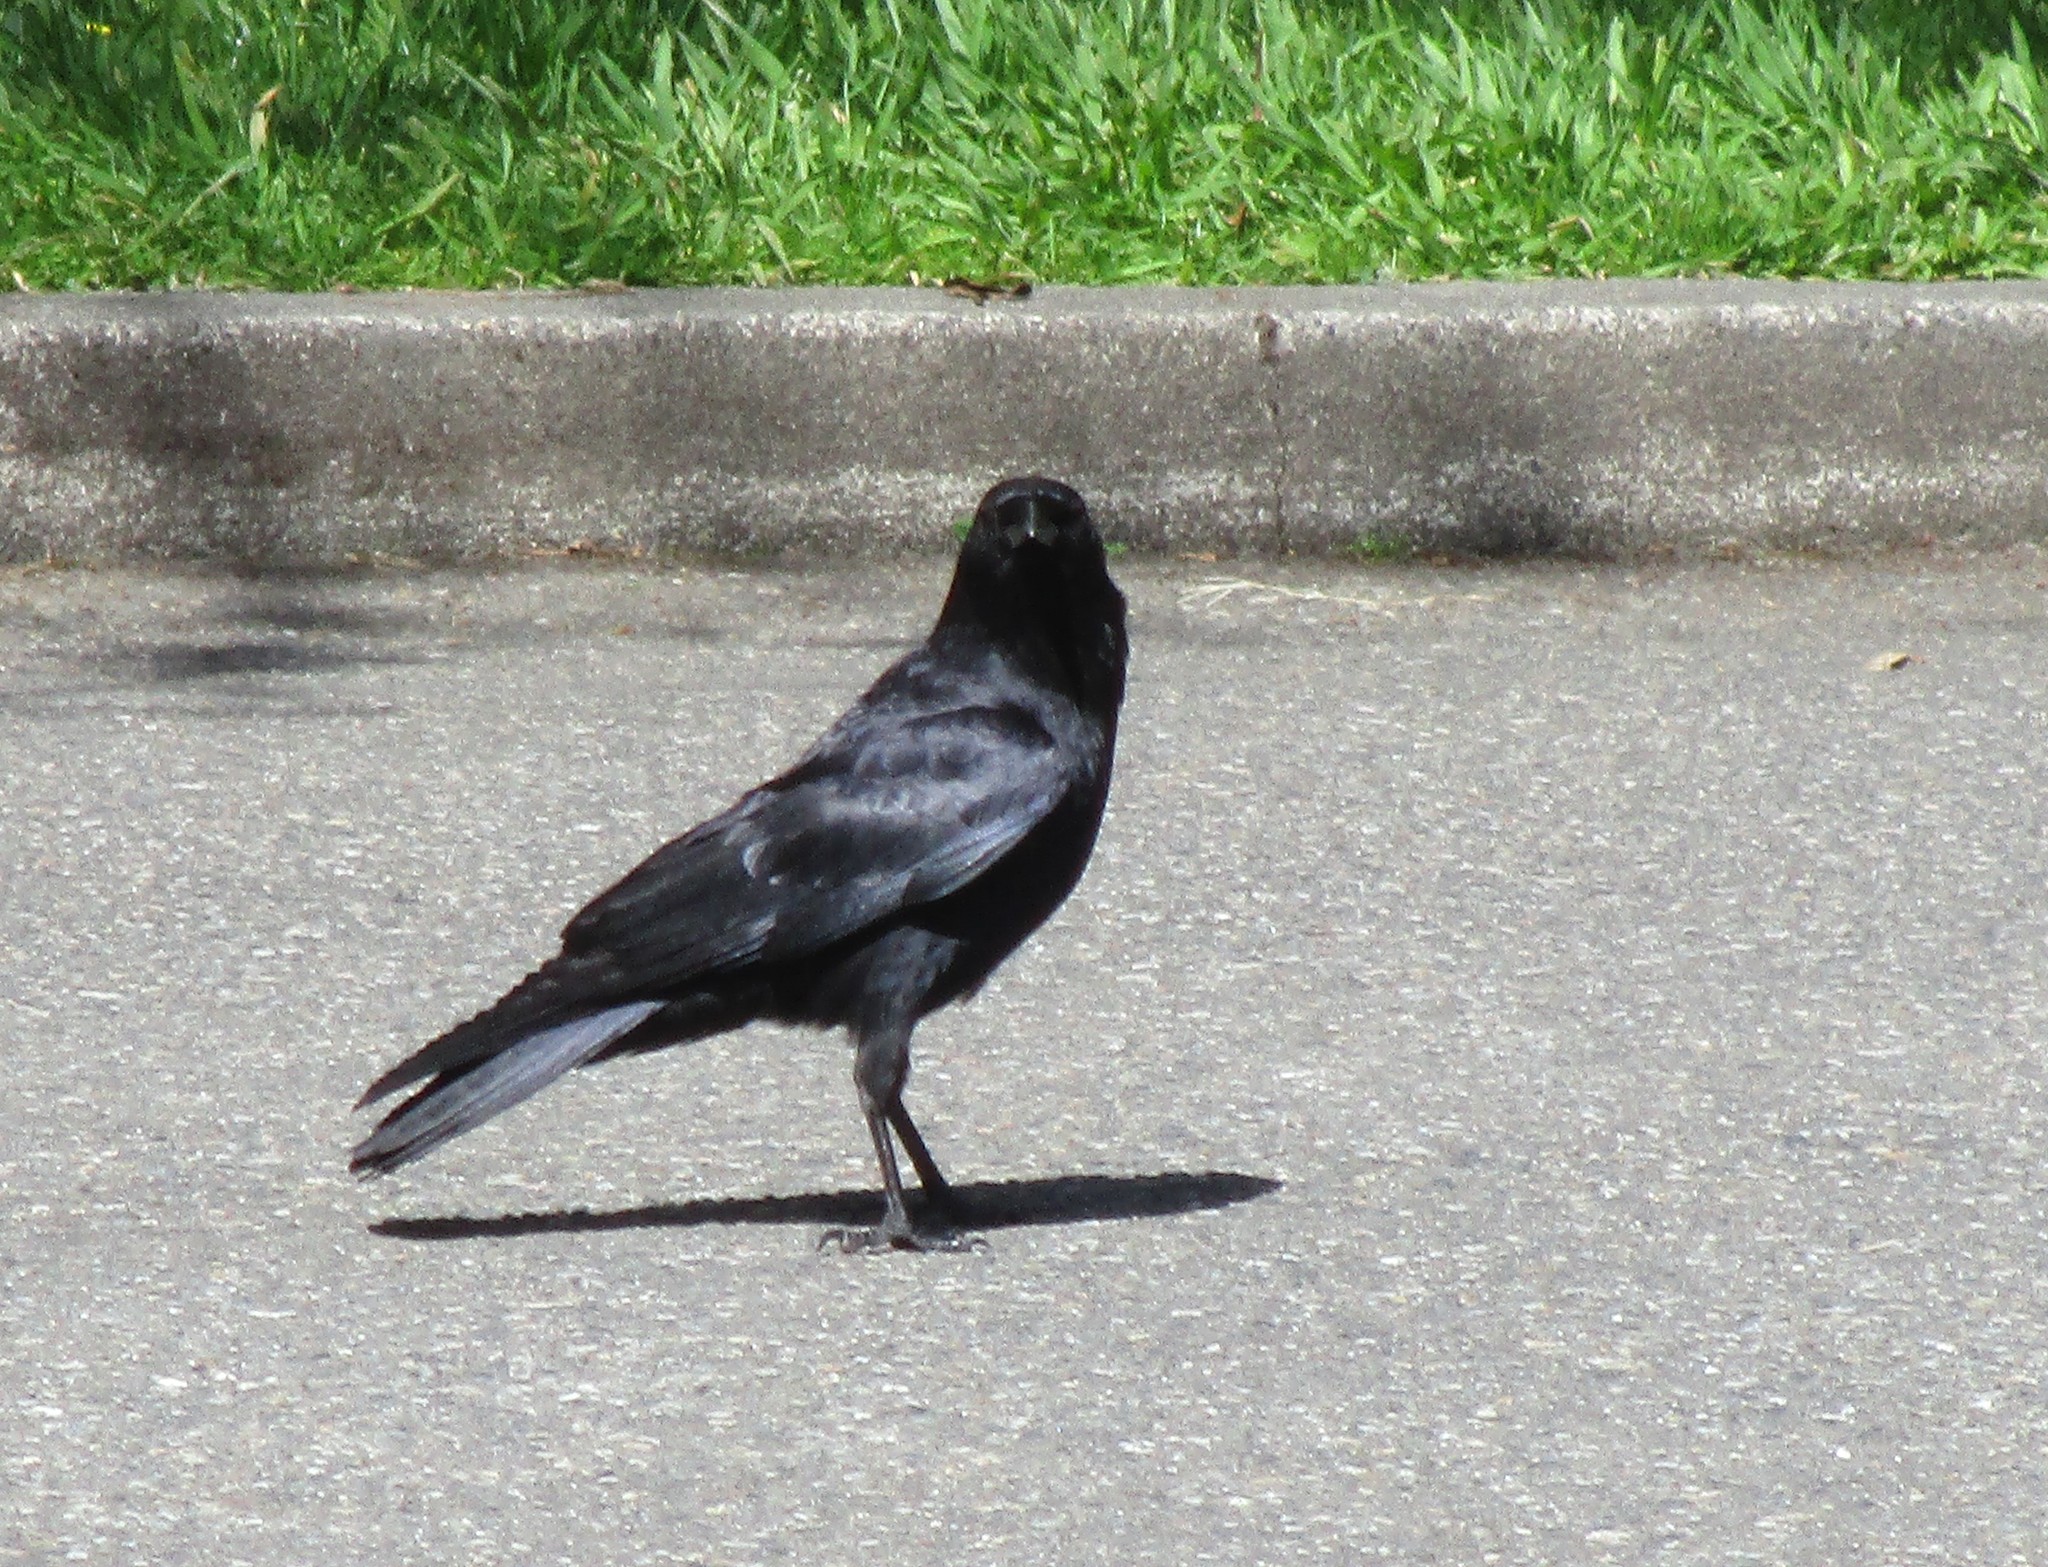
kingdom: Animalia
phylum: Chordata
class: Aves
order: Passeriformes
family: Corvidae
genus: Corvus
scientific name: Corvus brachyrhynchos
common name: American crow
